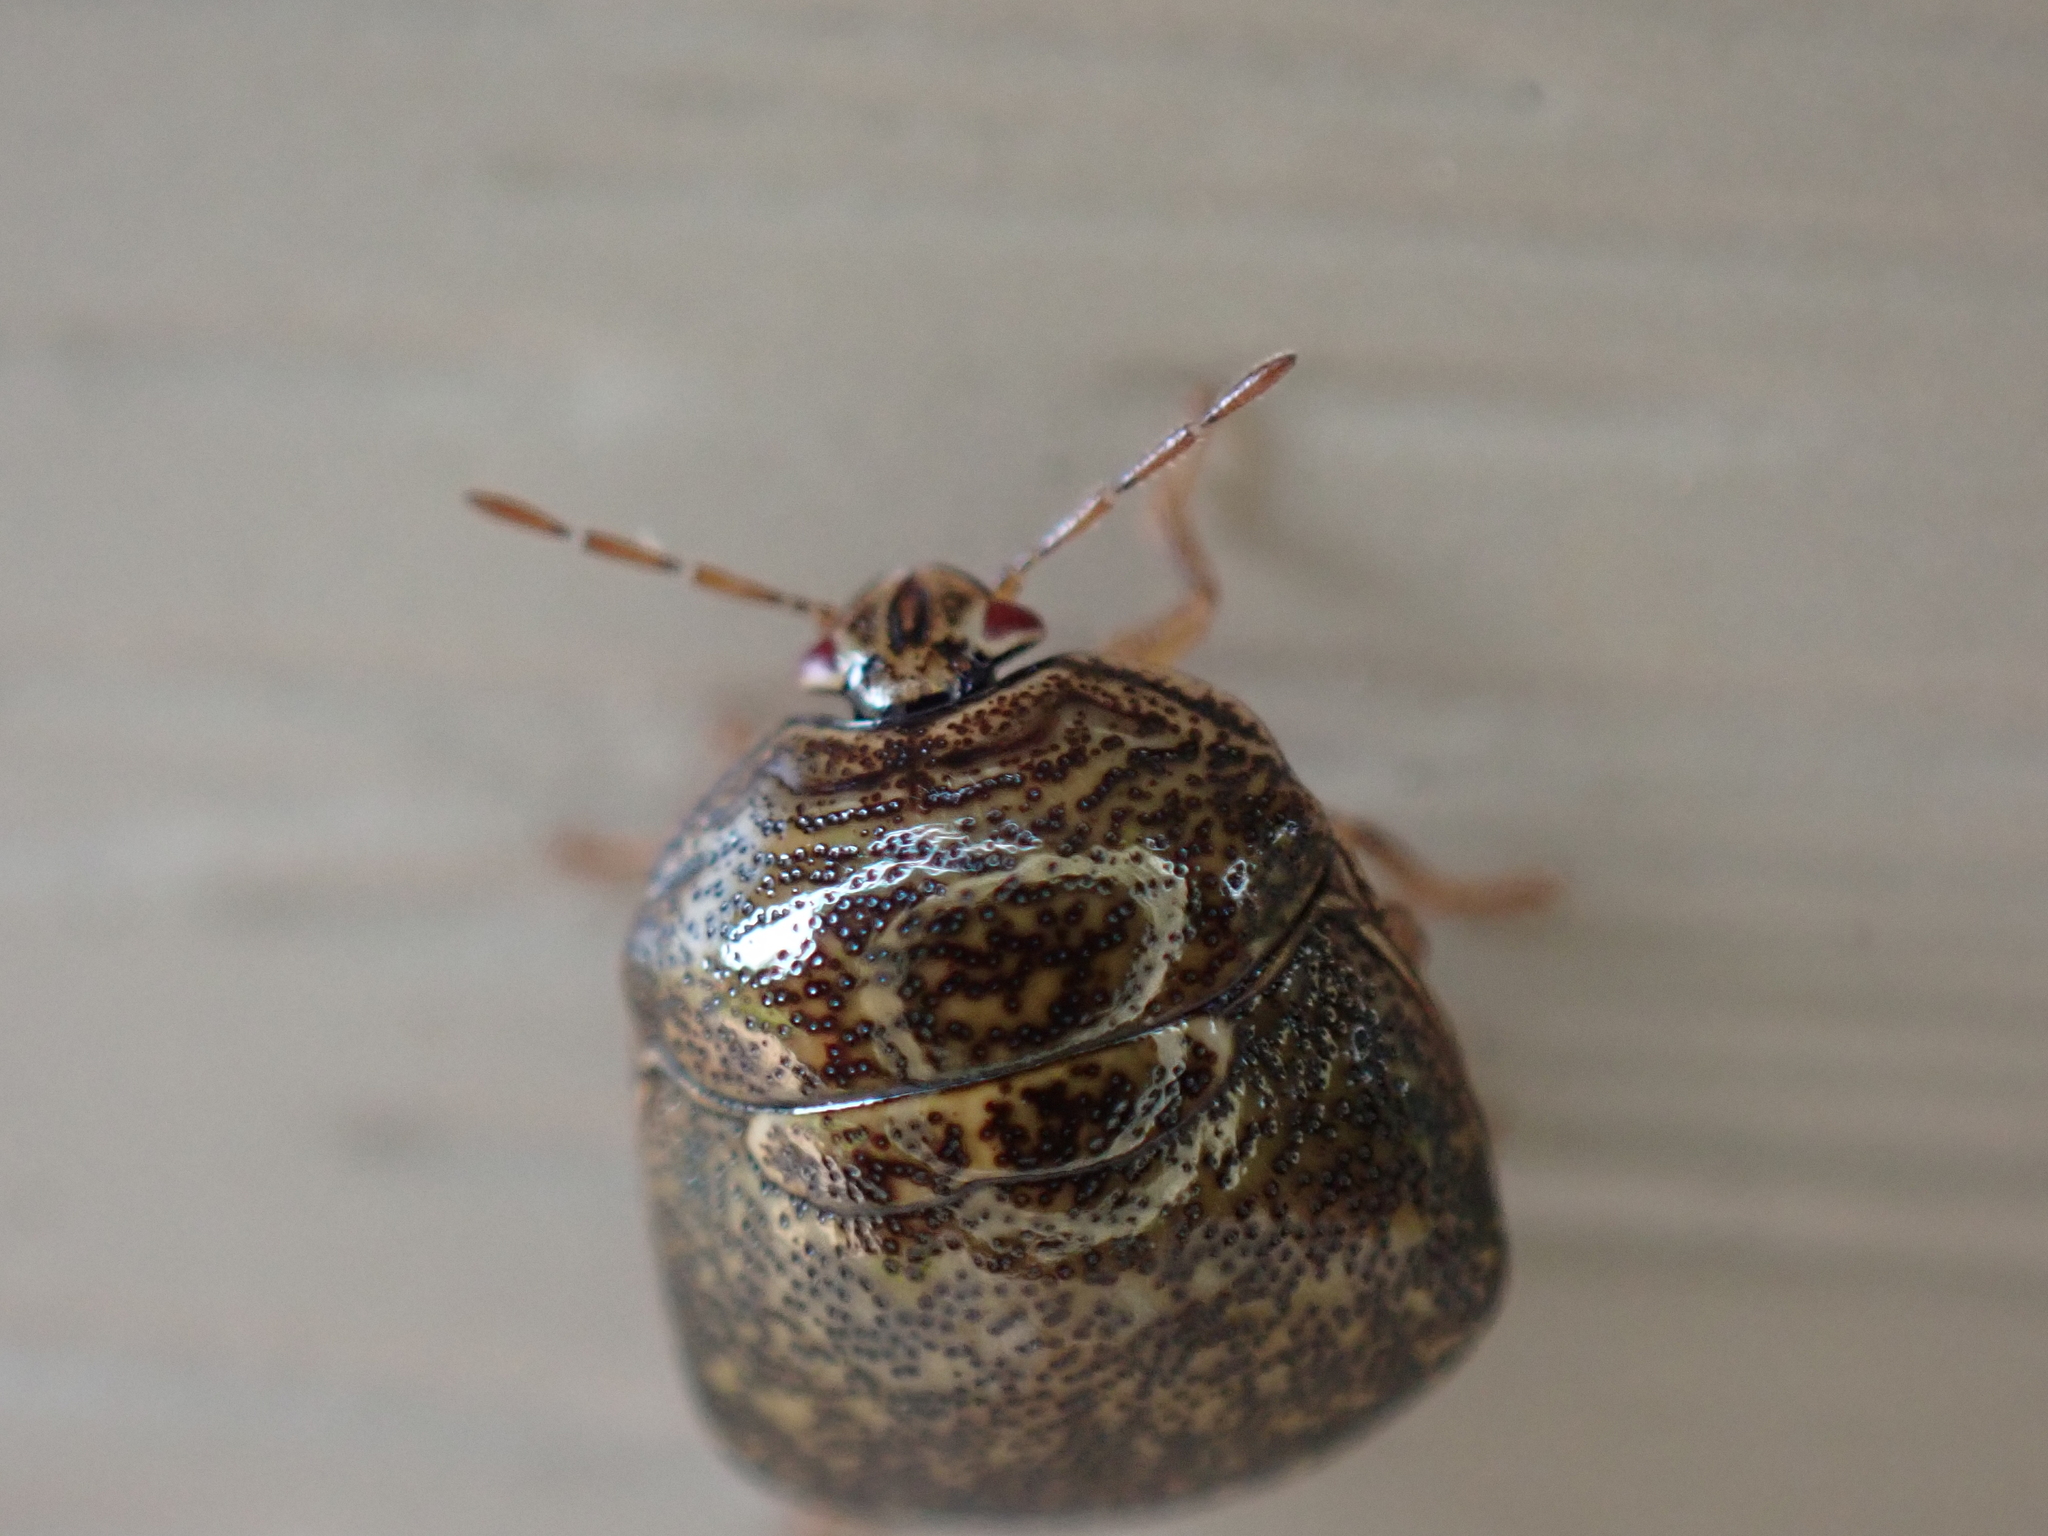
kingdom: Animalia
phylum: Arthropoda
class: Insecta
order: Hemiptera
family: Plataspidae
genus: Megacopta
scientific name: Megacopta cribraria
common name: Bean plataspid
